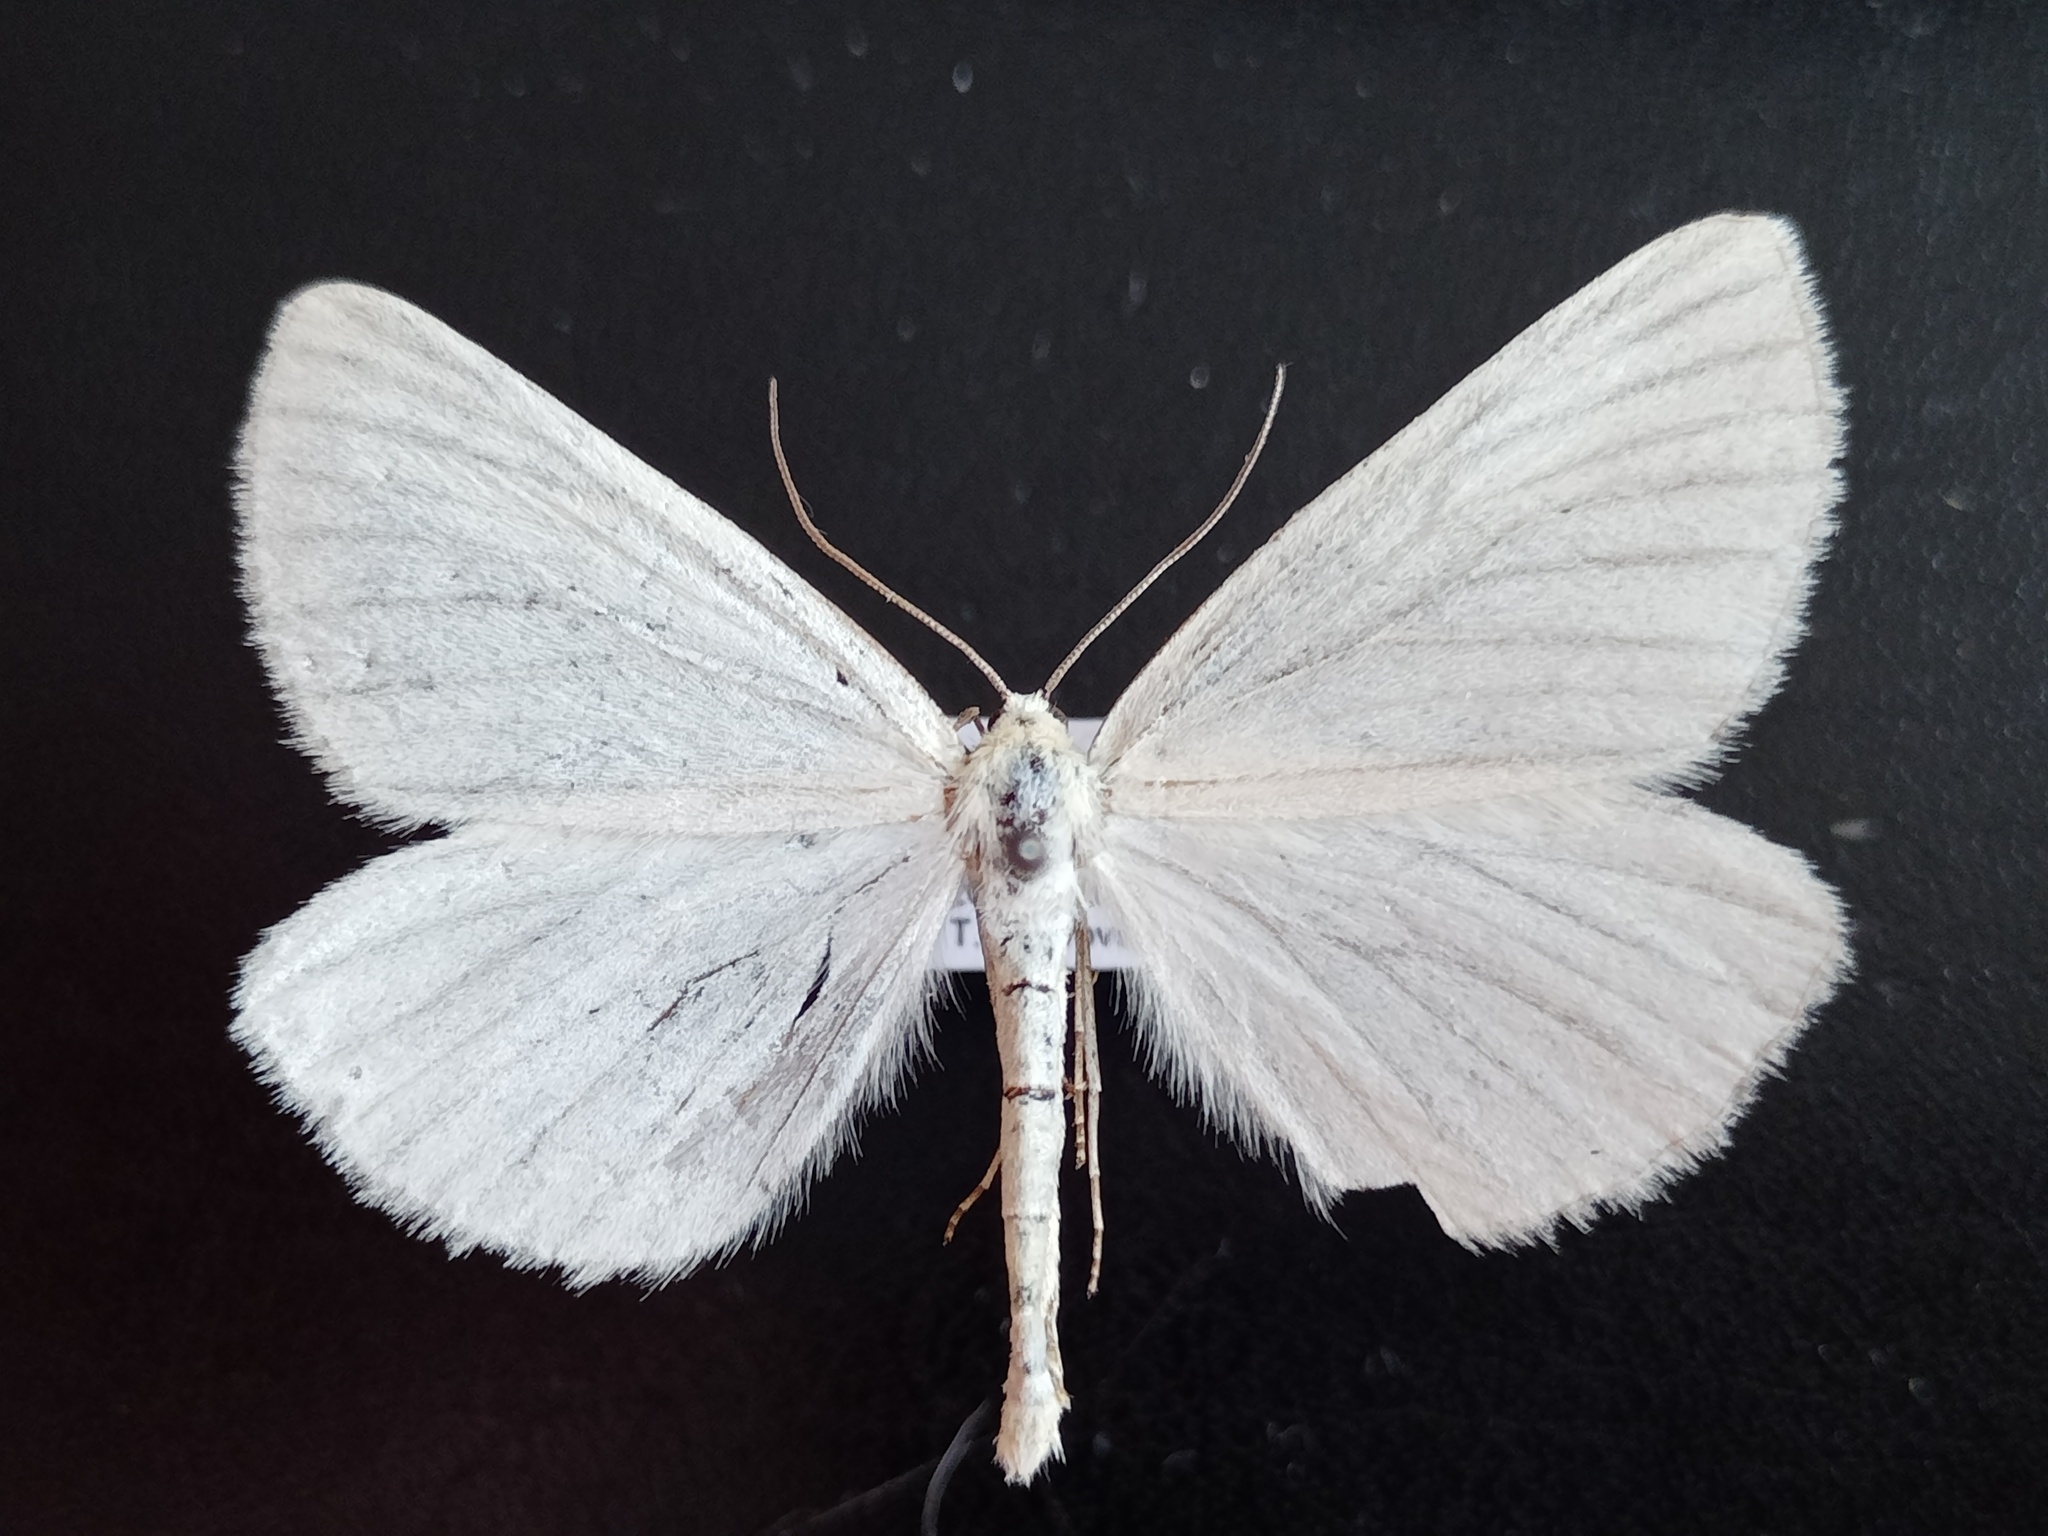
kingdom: Animalia
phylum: Arthropoda
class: Insecta
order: Lepidoptera
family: Geometridae
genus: Siona
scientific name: Siona lineata
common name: Black-veined moth
